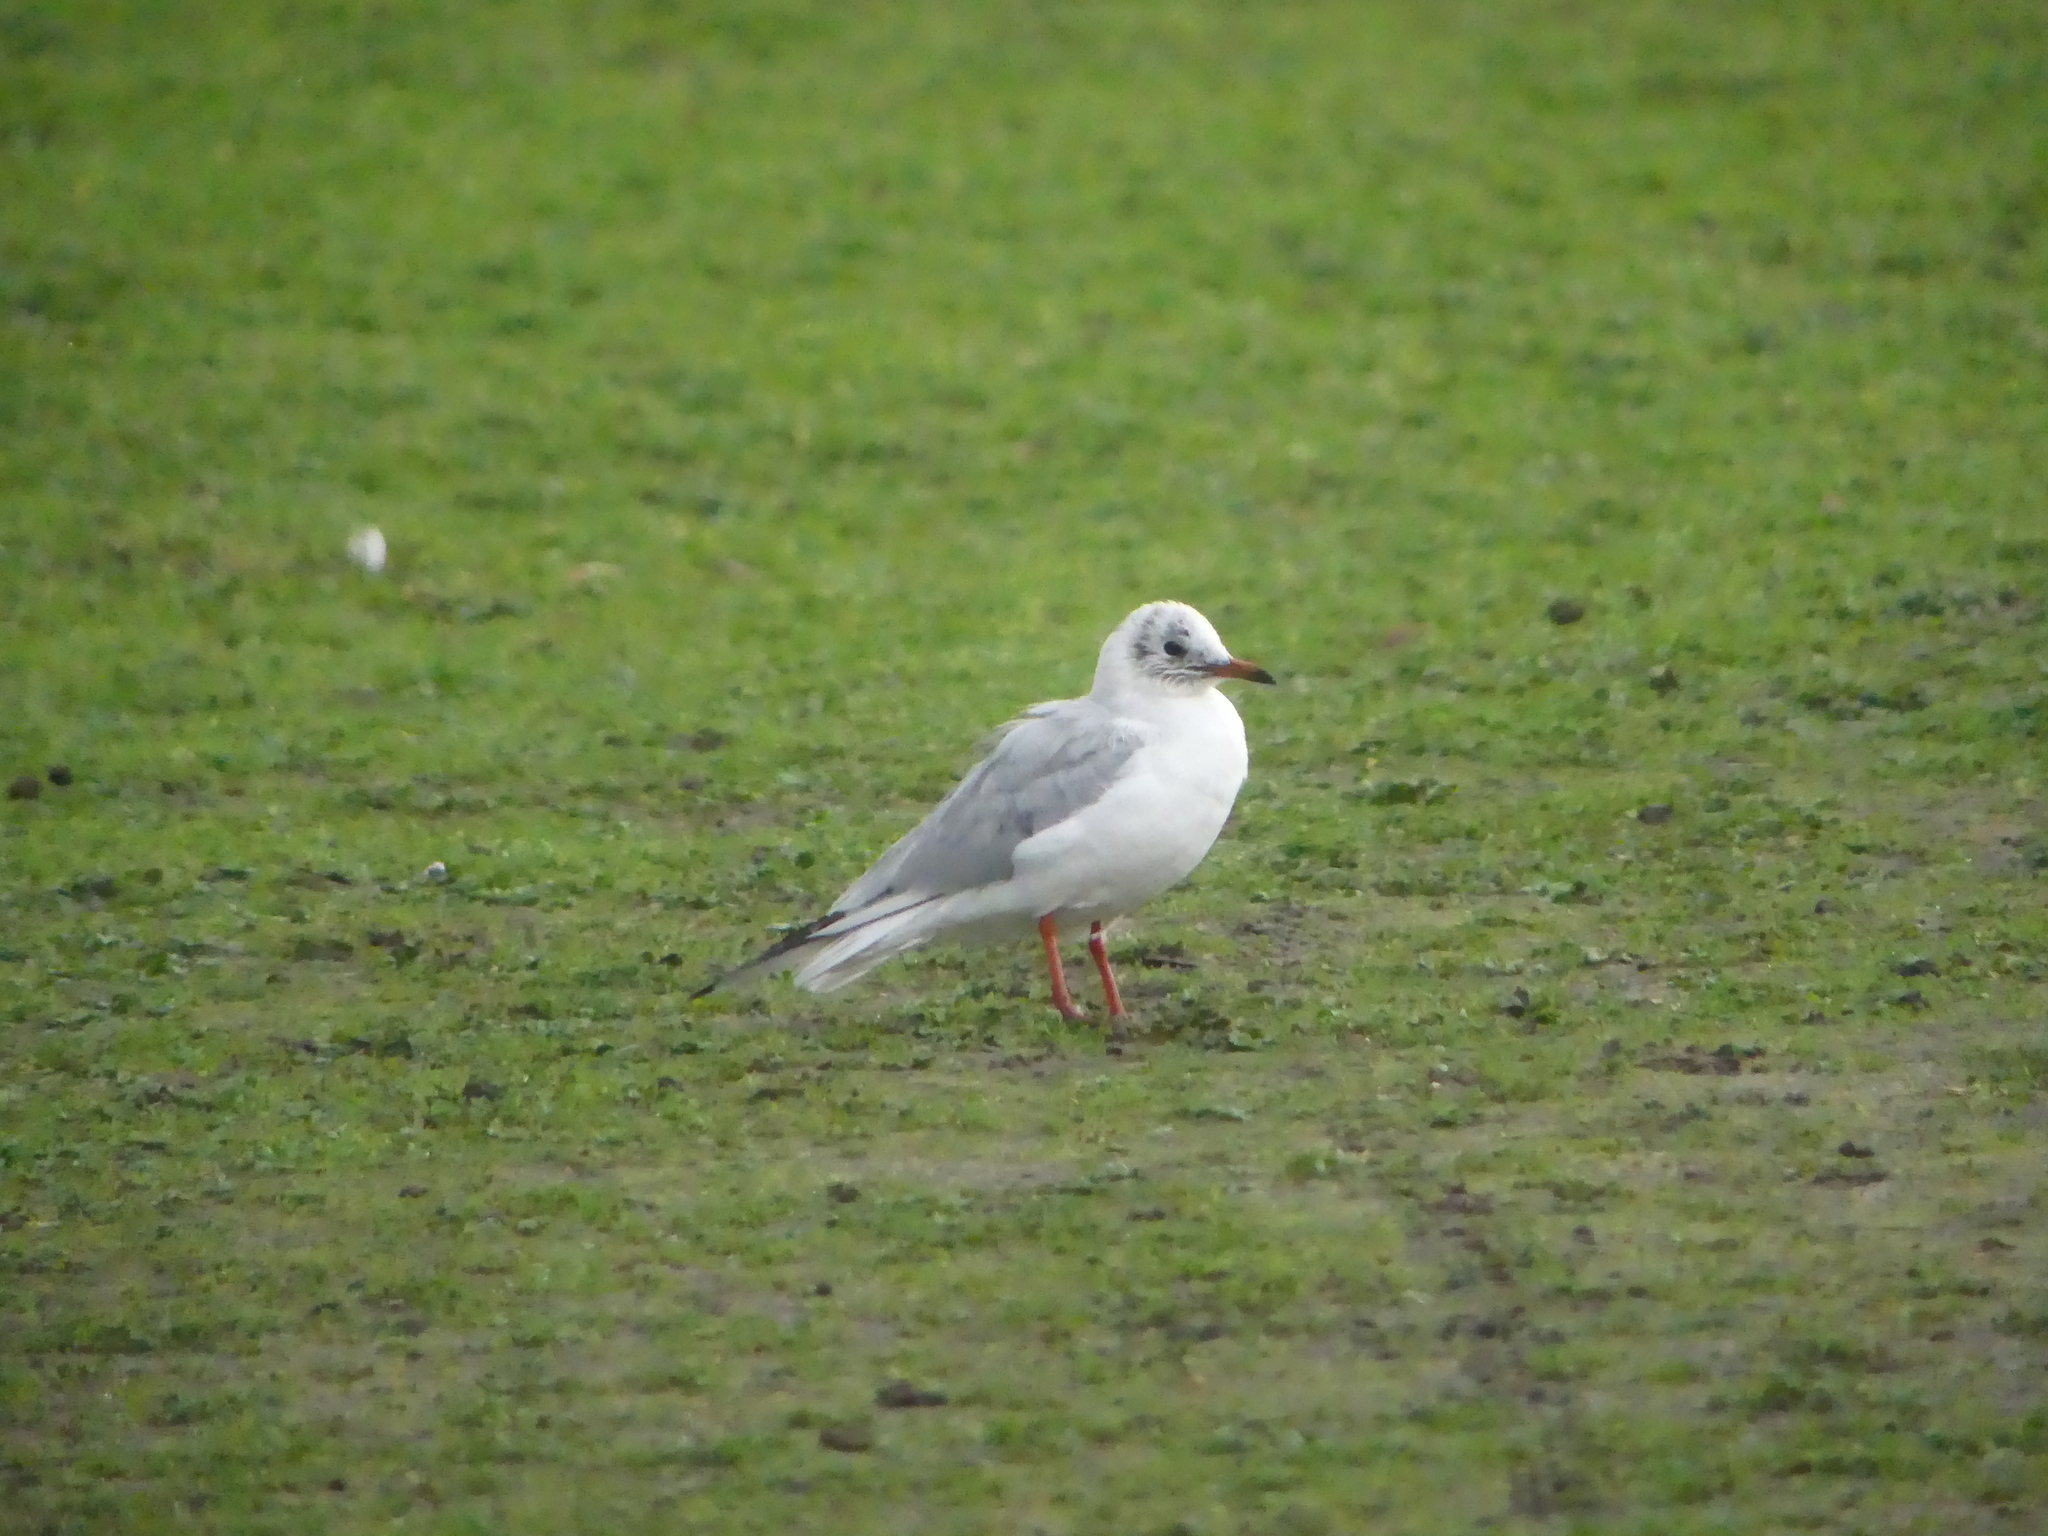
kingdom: Animalia
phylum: Chordata
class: Aves
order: Charadriiformes
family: Laridae
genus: Chroicocephalus
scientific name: Chroicocephalus ridibundus
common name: Black-headed gull
